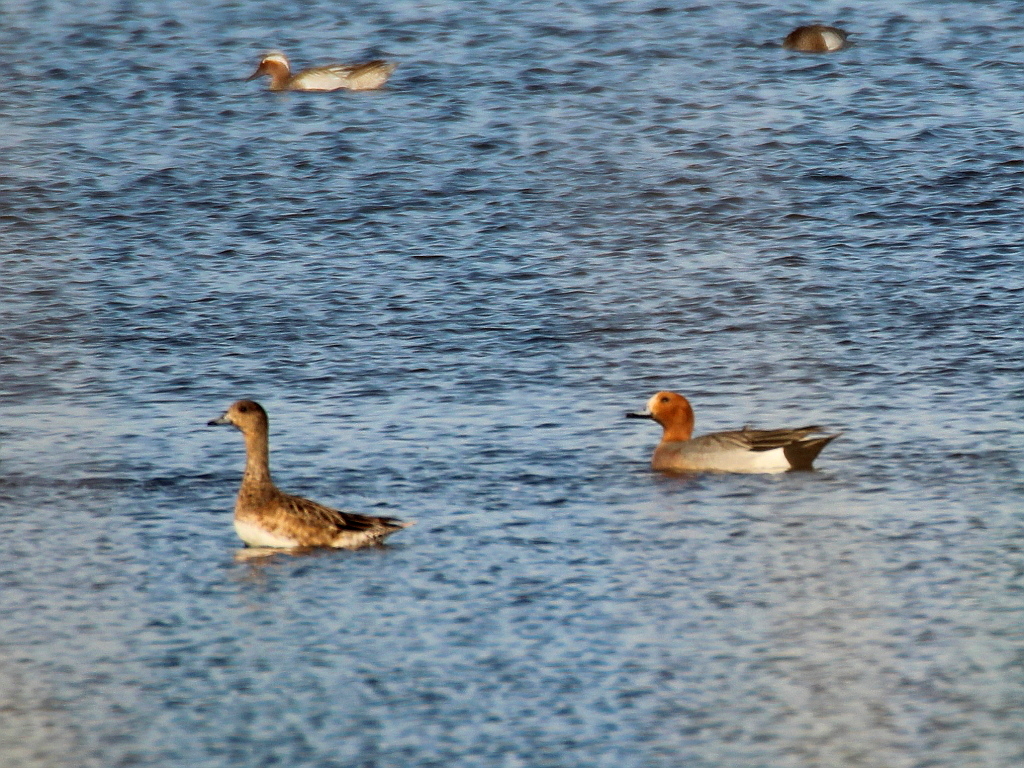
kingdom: Animalia
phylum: Chordata
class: Aves
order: Anseriformes
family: Anatidae
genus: Mareca
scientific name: Mareca penelope
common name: Eurasian wigeon
